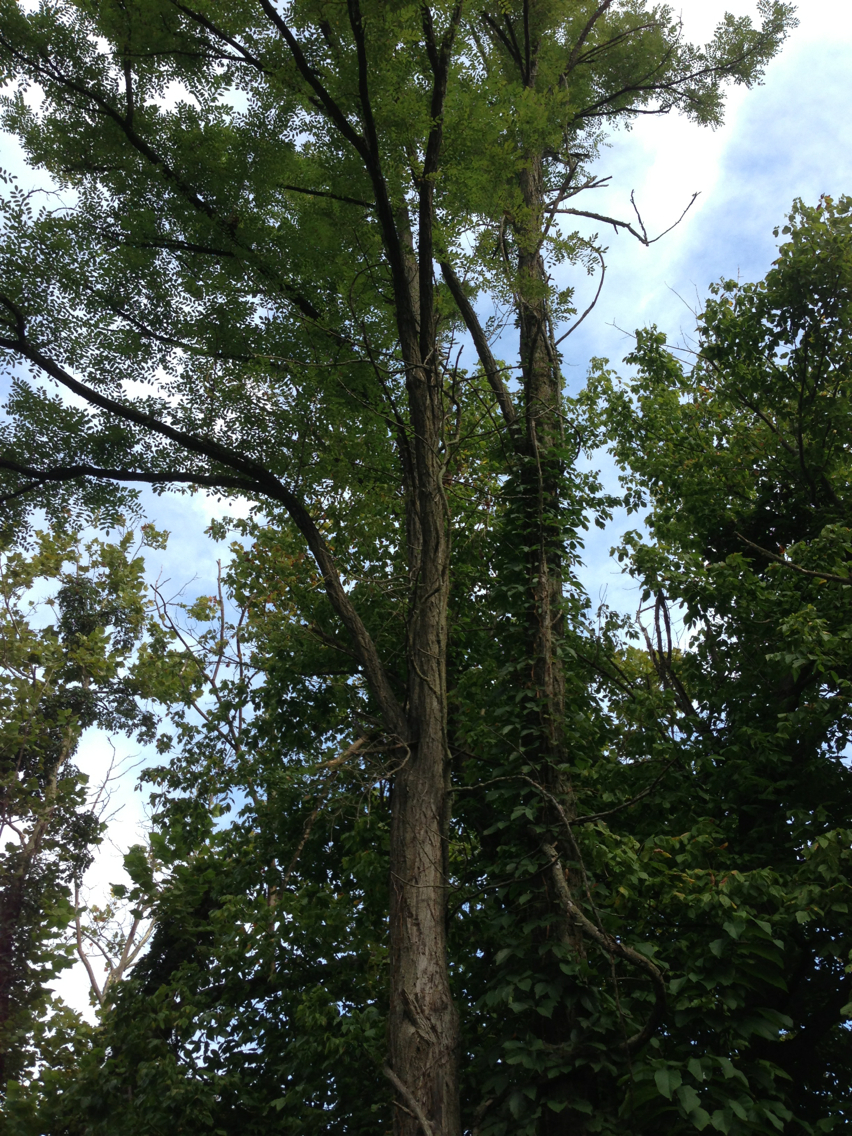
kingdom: Plantae
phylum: Tracheophyta
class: Magnoliopsida
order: Fabales
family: Fabaceae
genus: Robinia
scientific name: Robinia pseudoacacia
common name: Black locust
